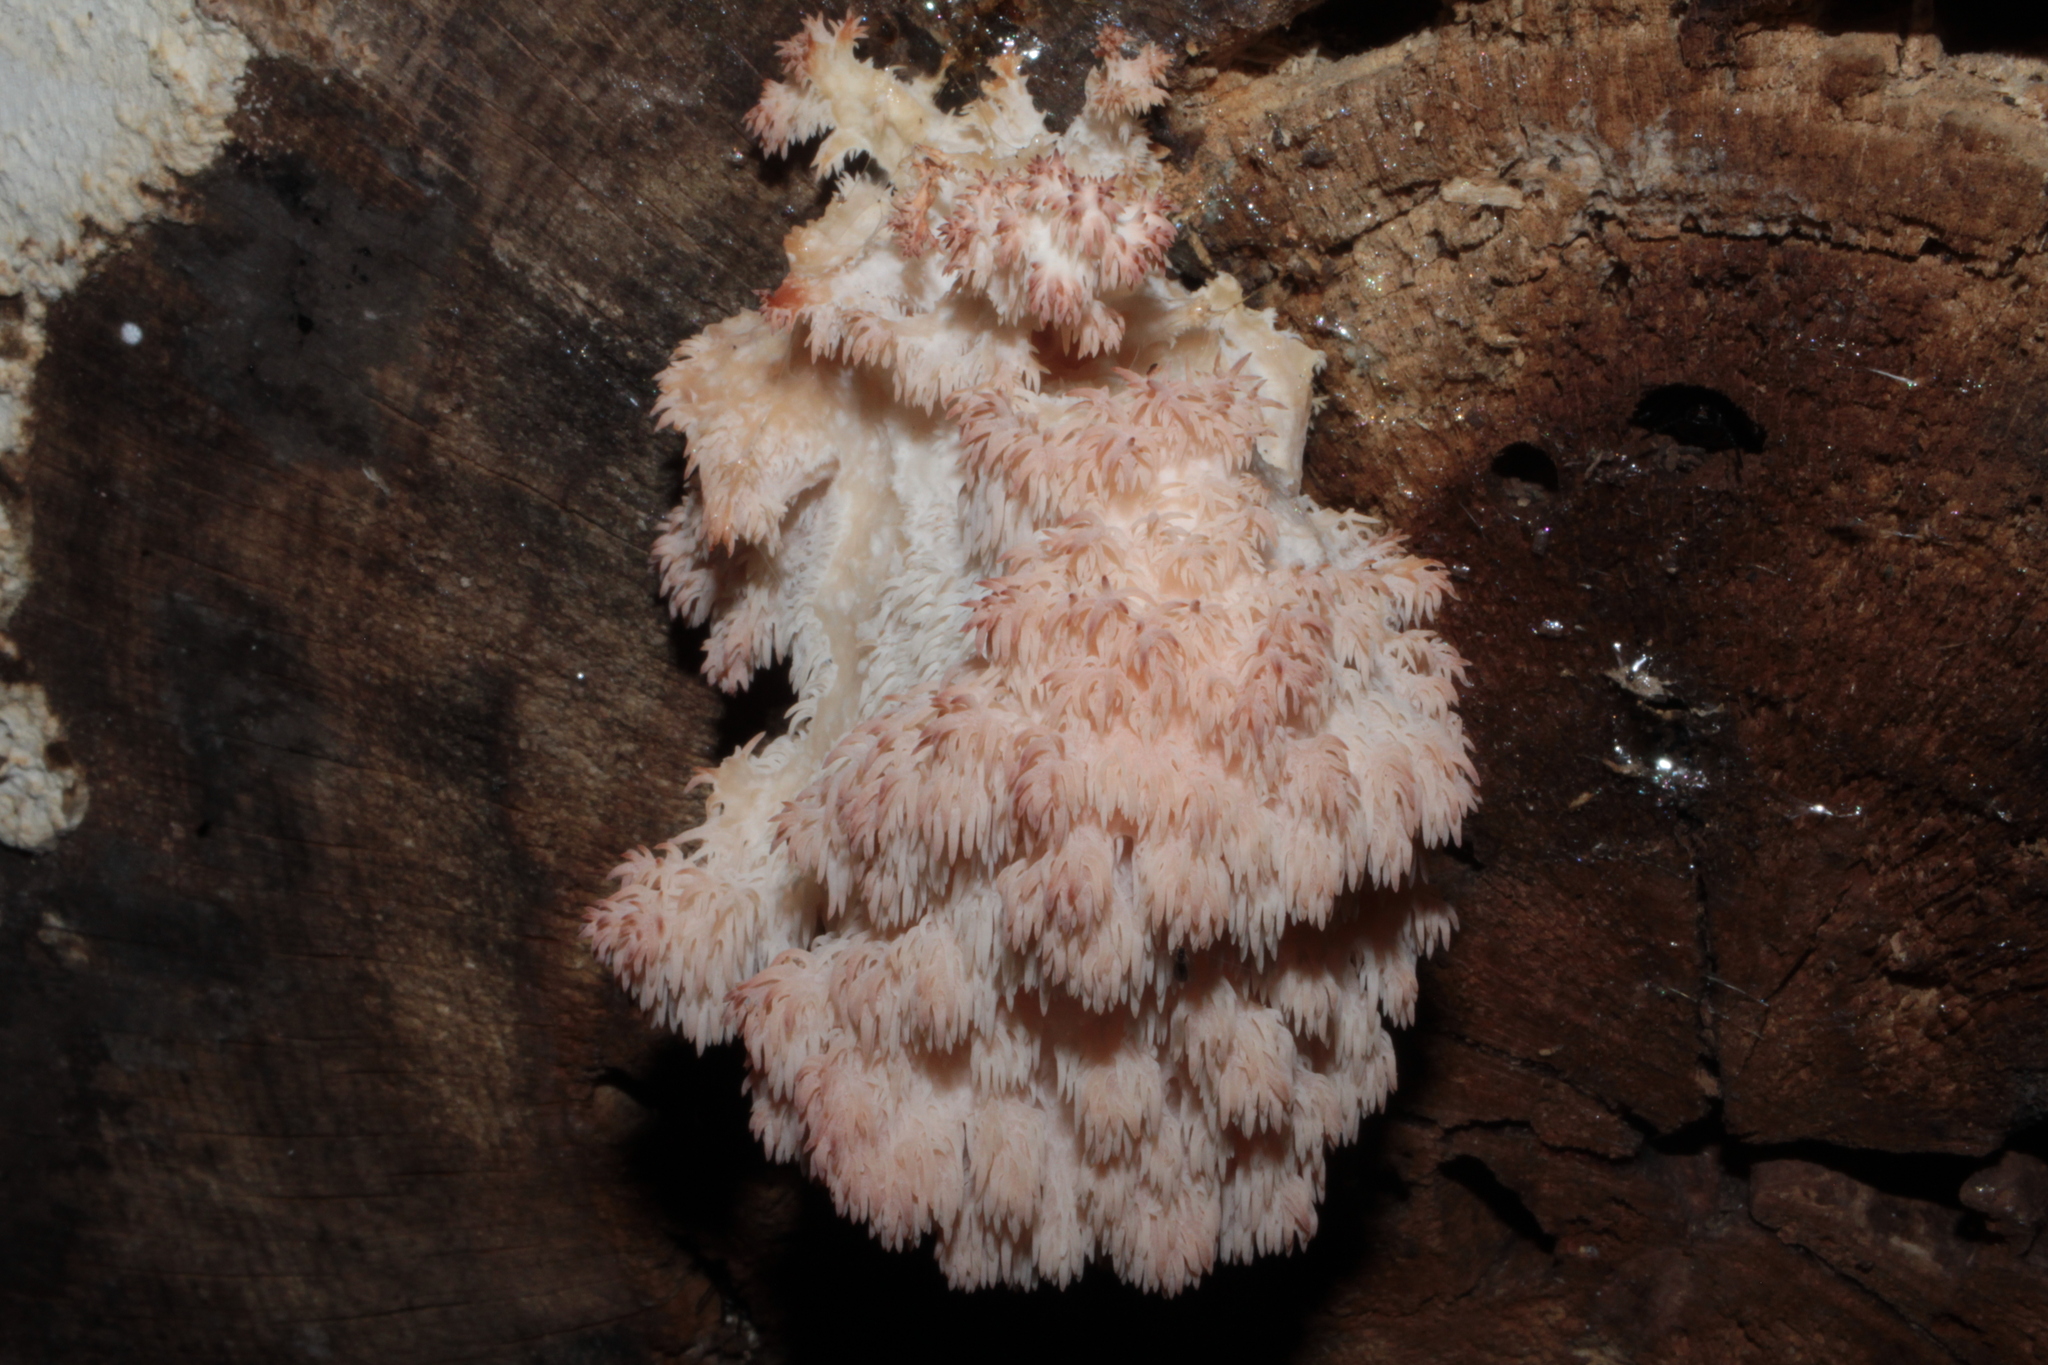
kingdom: Fungi
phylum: Basidiomycota
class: Agaricomycetes
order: Russulales
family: Hericiaceae
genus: Hericium
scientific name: Hericium americanum
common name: Bear's head tooth
